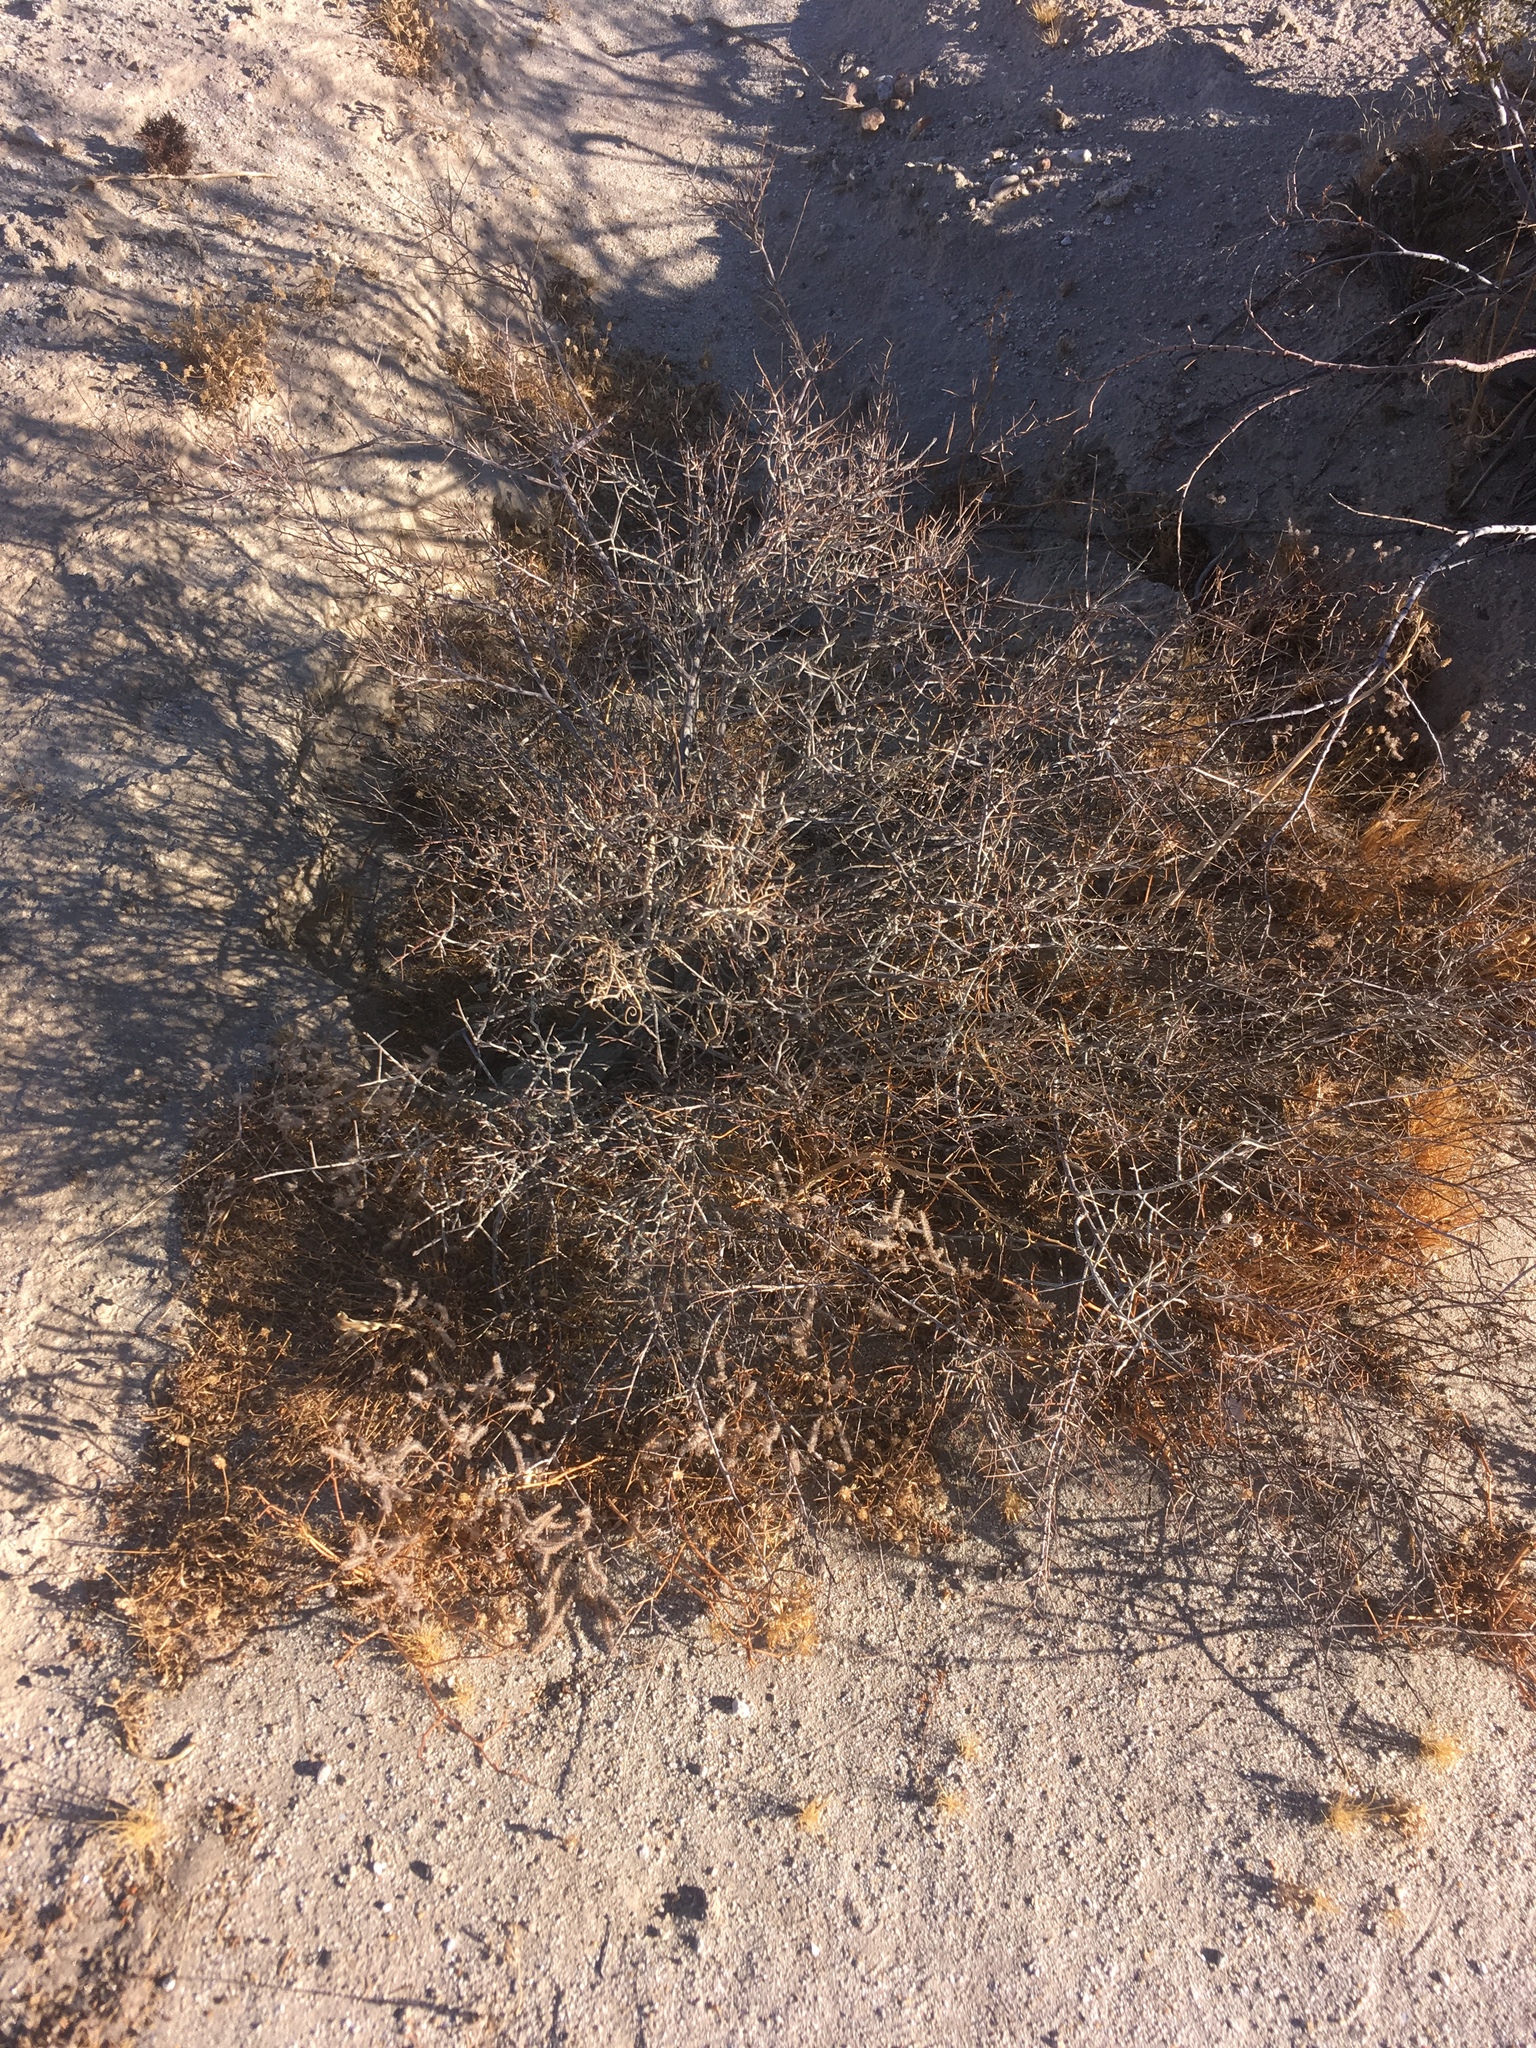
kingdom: Plantae
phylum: Tracheophyta
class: Magnoliopsida
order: Zygophyllales
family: Krameriaceae
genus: Krameria
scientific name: Krameria bicolor
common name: White ratany
